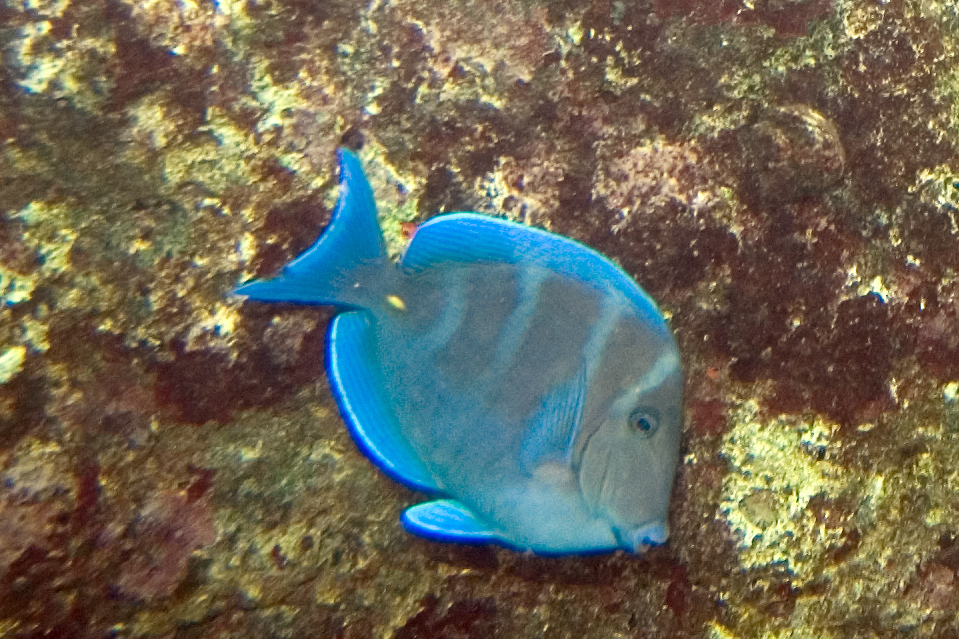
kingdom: Animalia
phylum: Chordata
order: Perciformes
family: Acanthuridae
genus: Acanthurus
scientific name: Acanthurus coeruleus
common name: Blue tang
